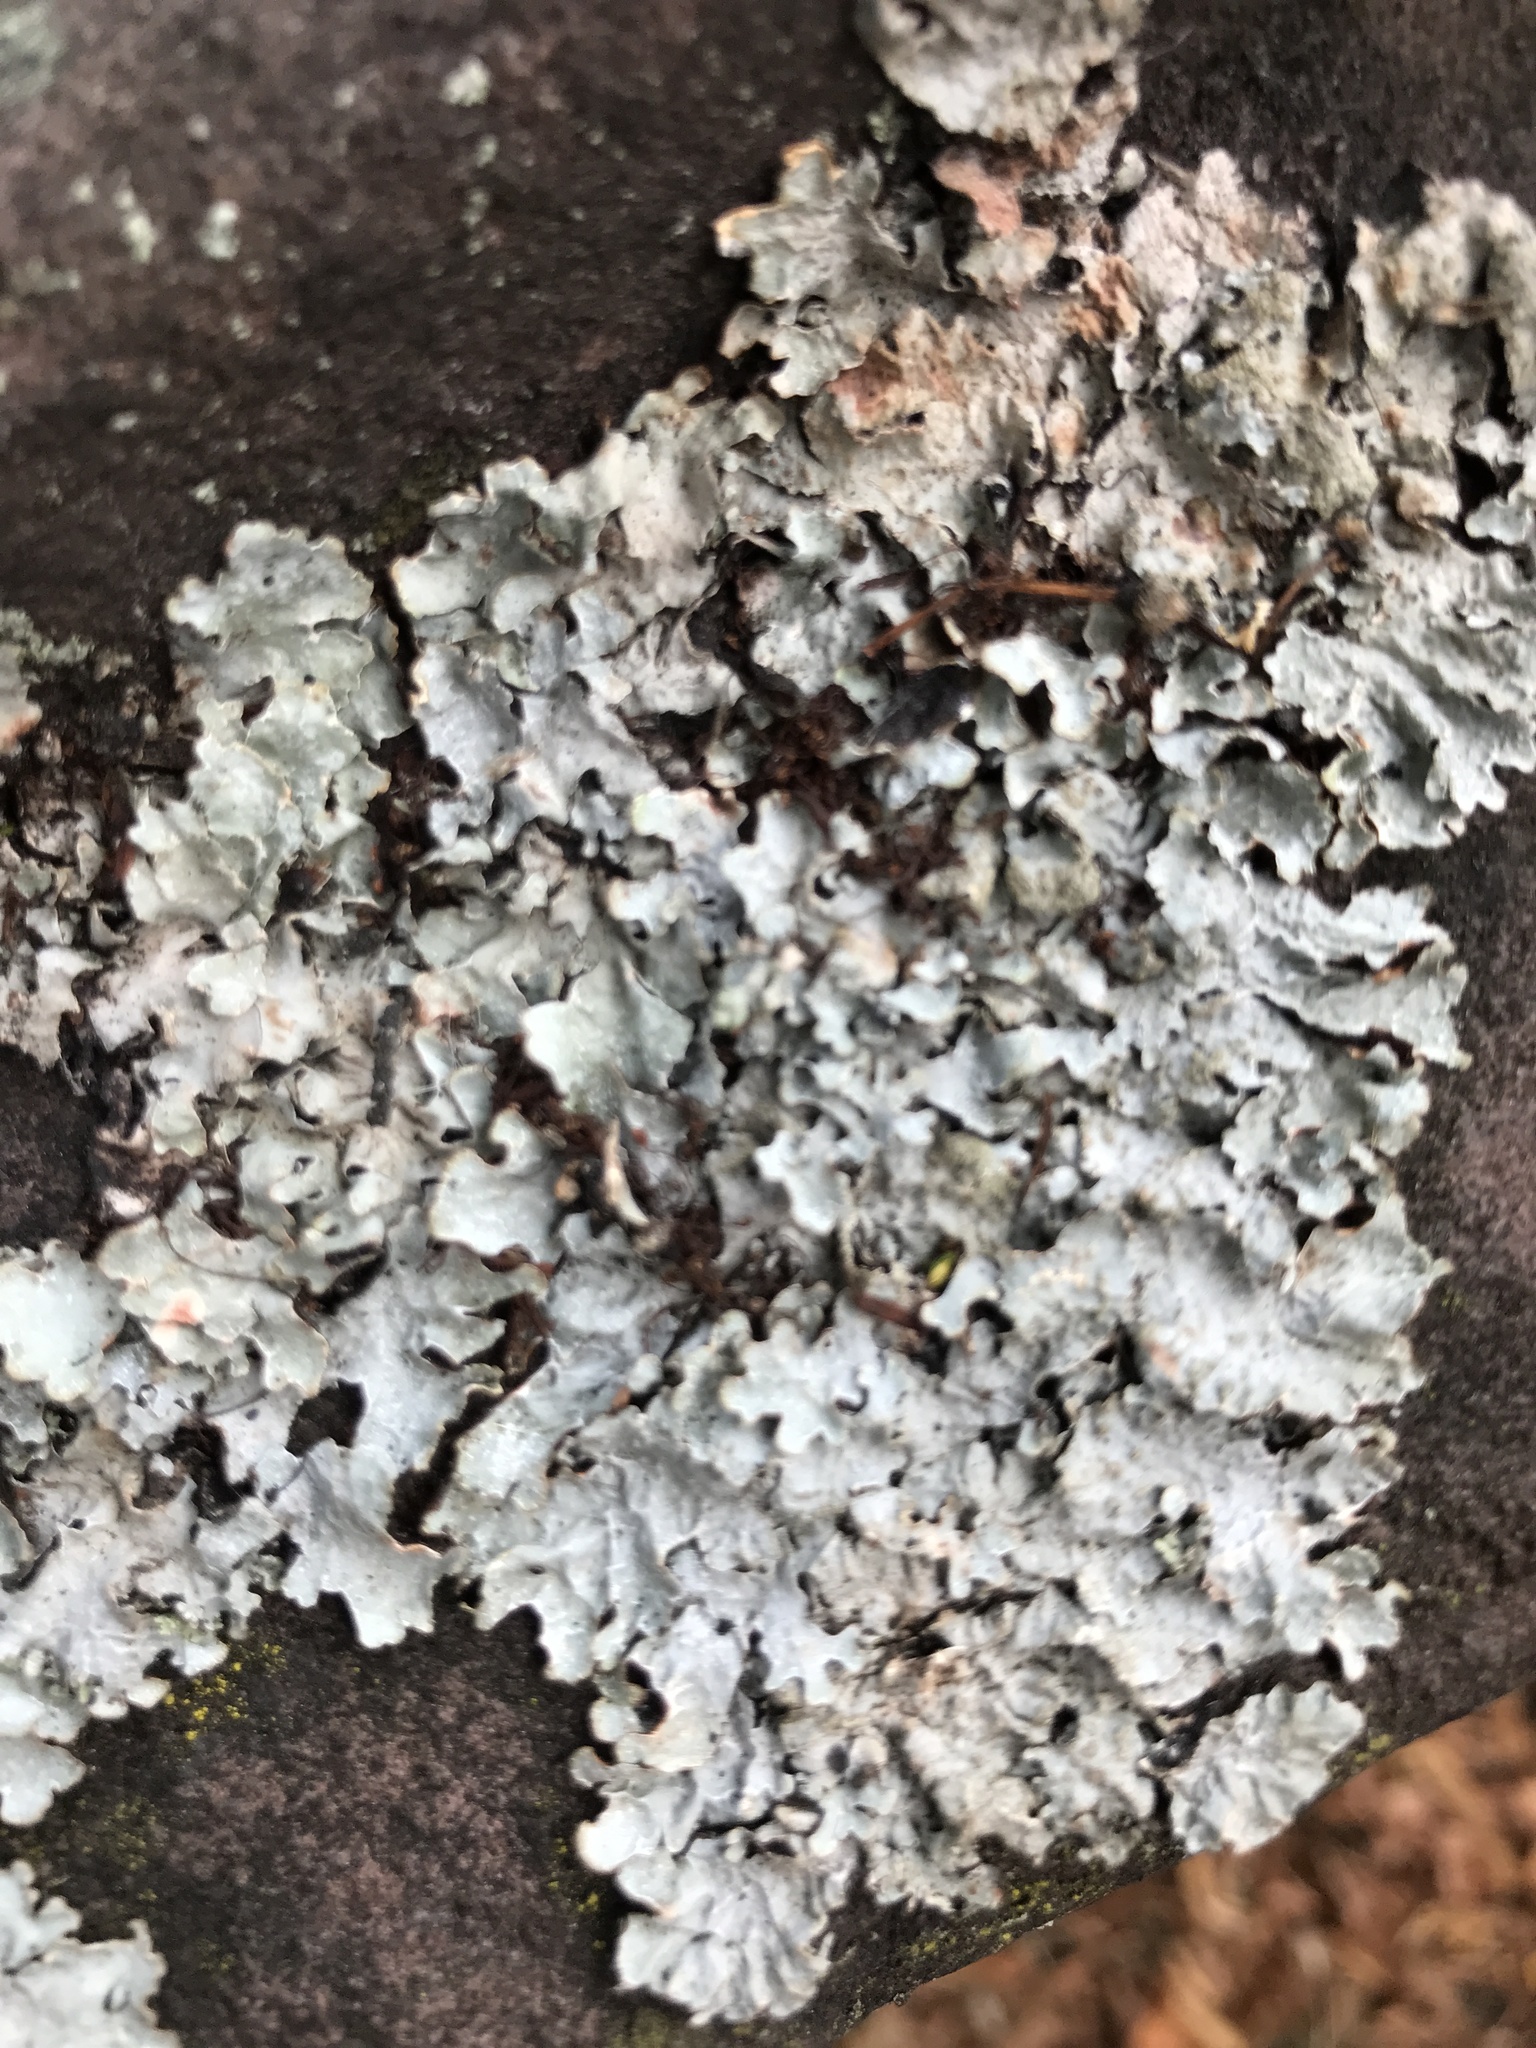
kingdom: Fungi
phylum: Ascomycota
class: Lecanoromycetes
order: Lecanorales
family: Parmeliaceae
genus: Parmelia
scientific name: Parmelia sulcata
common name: Netted shield lichen
